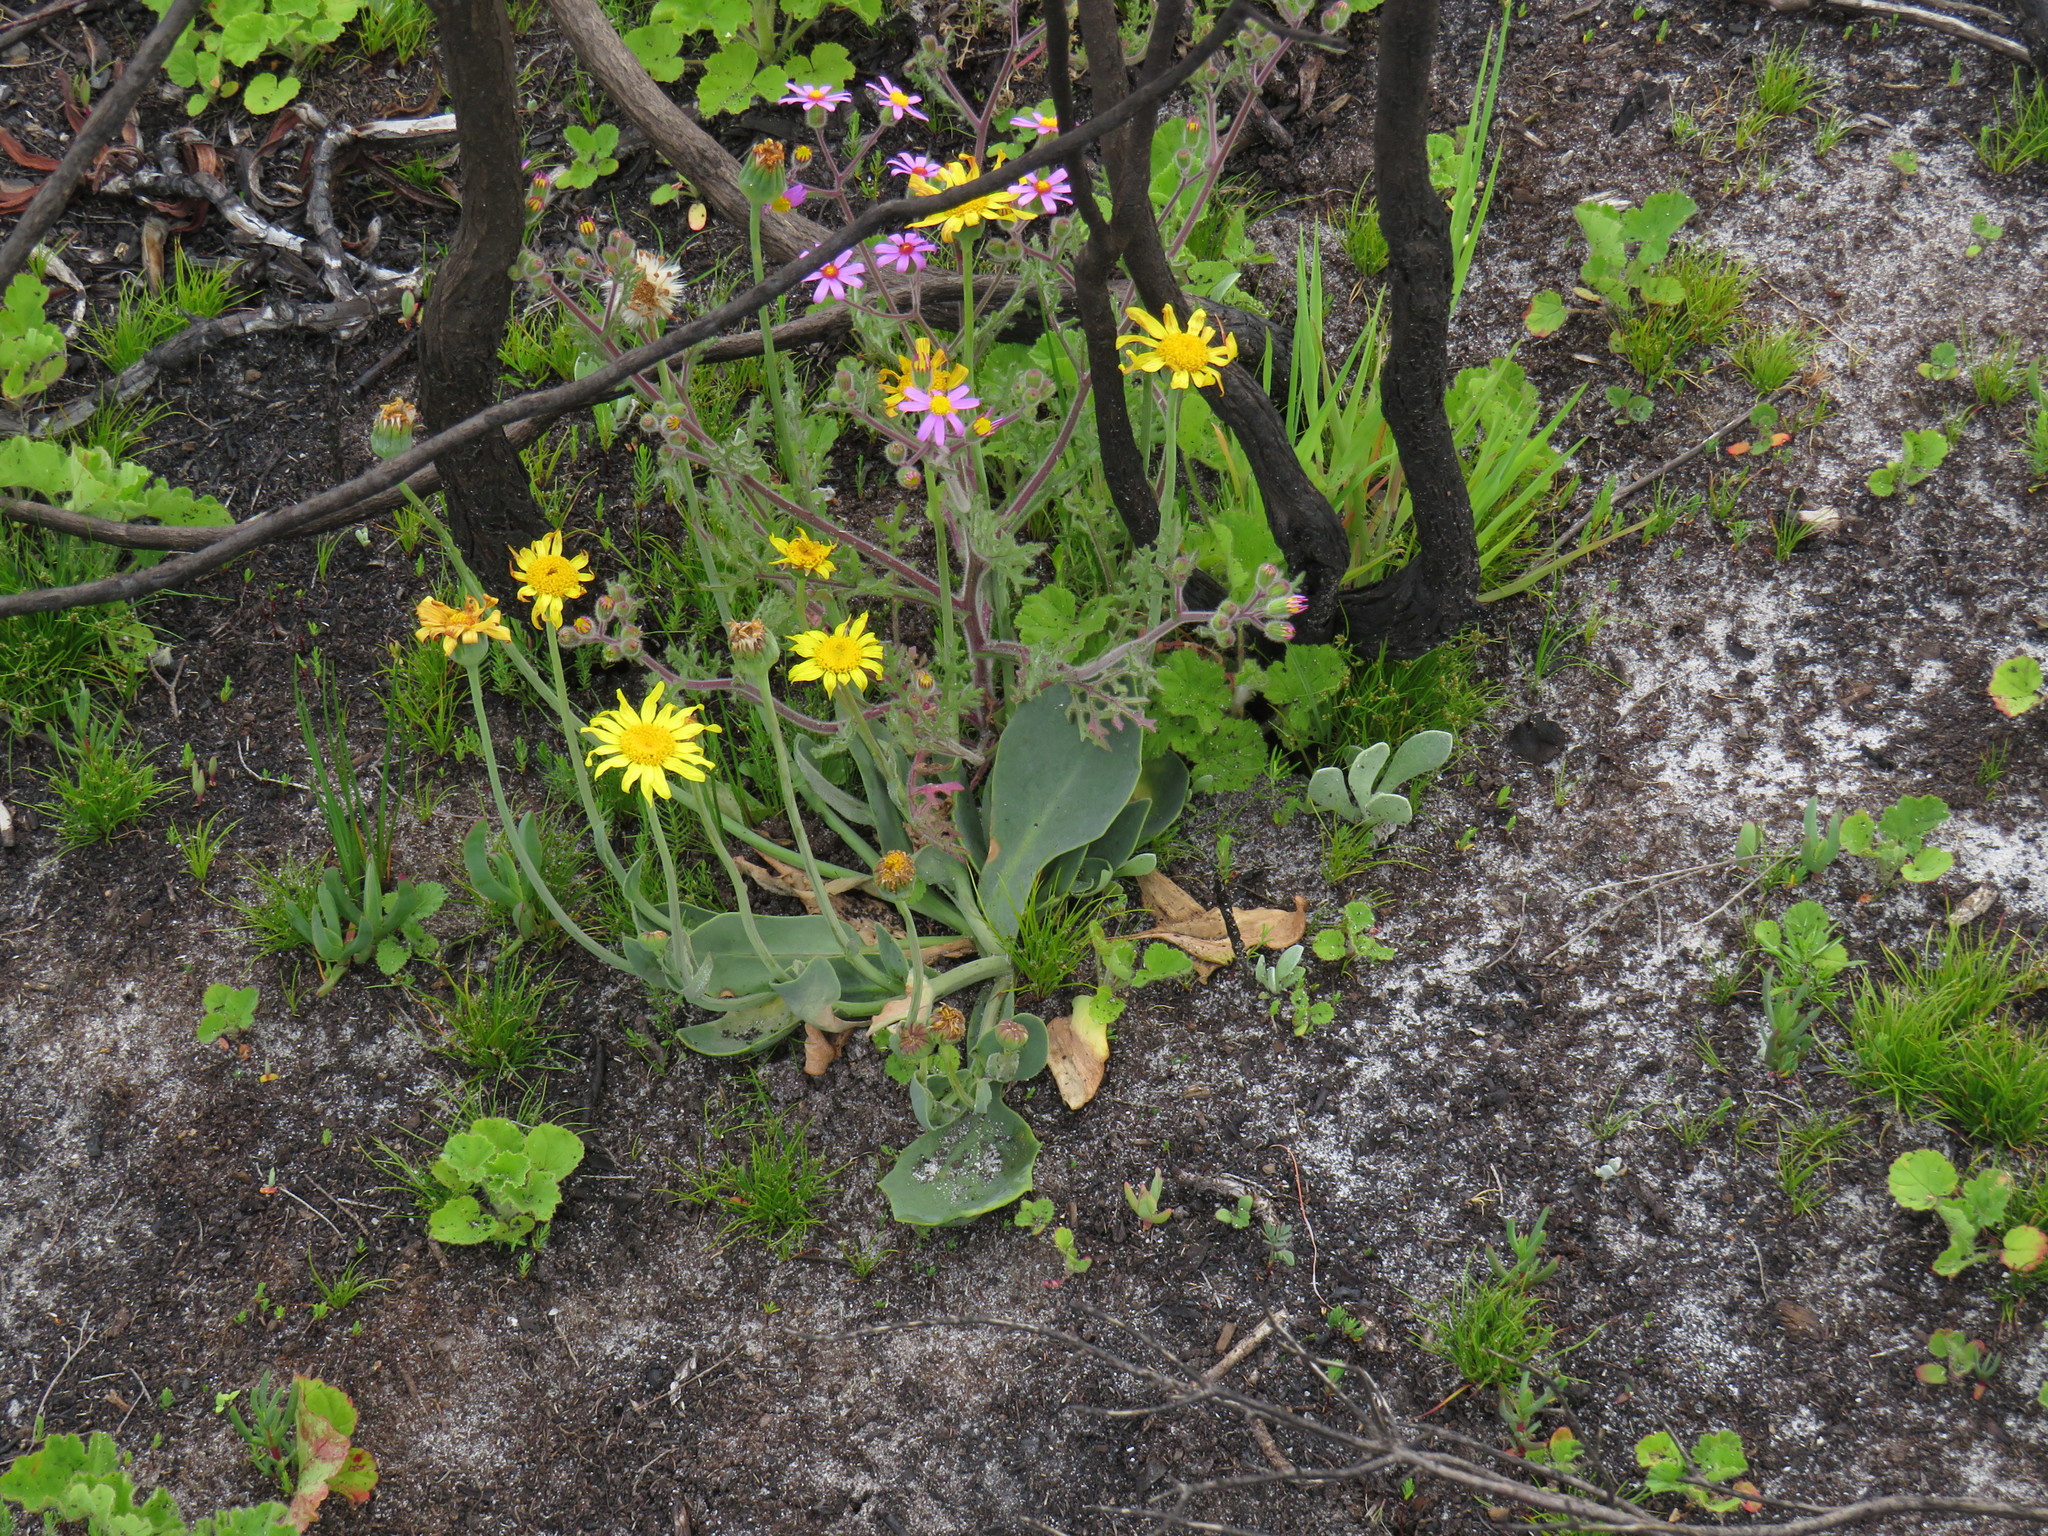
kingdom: Plantae
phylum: Tracheophyta
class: Magnoliopsida
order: Asterales
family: Asteraceae
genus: Othonna
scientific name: Othonna bulbosa
